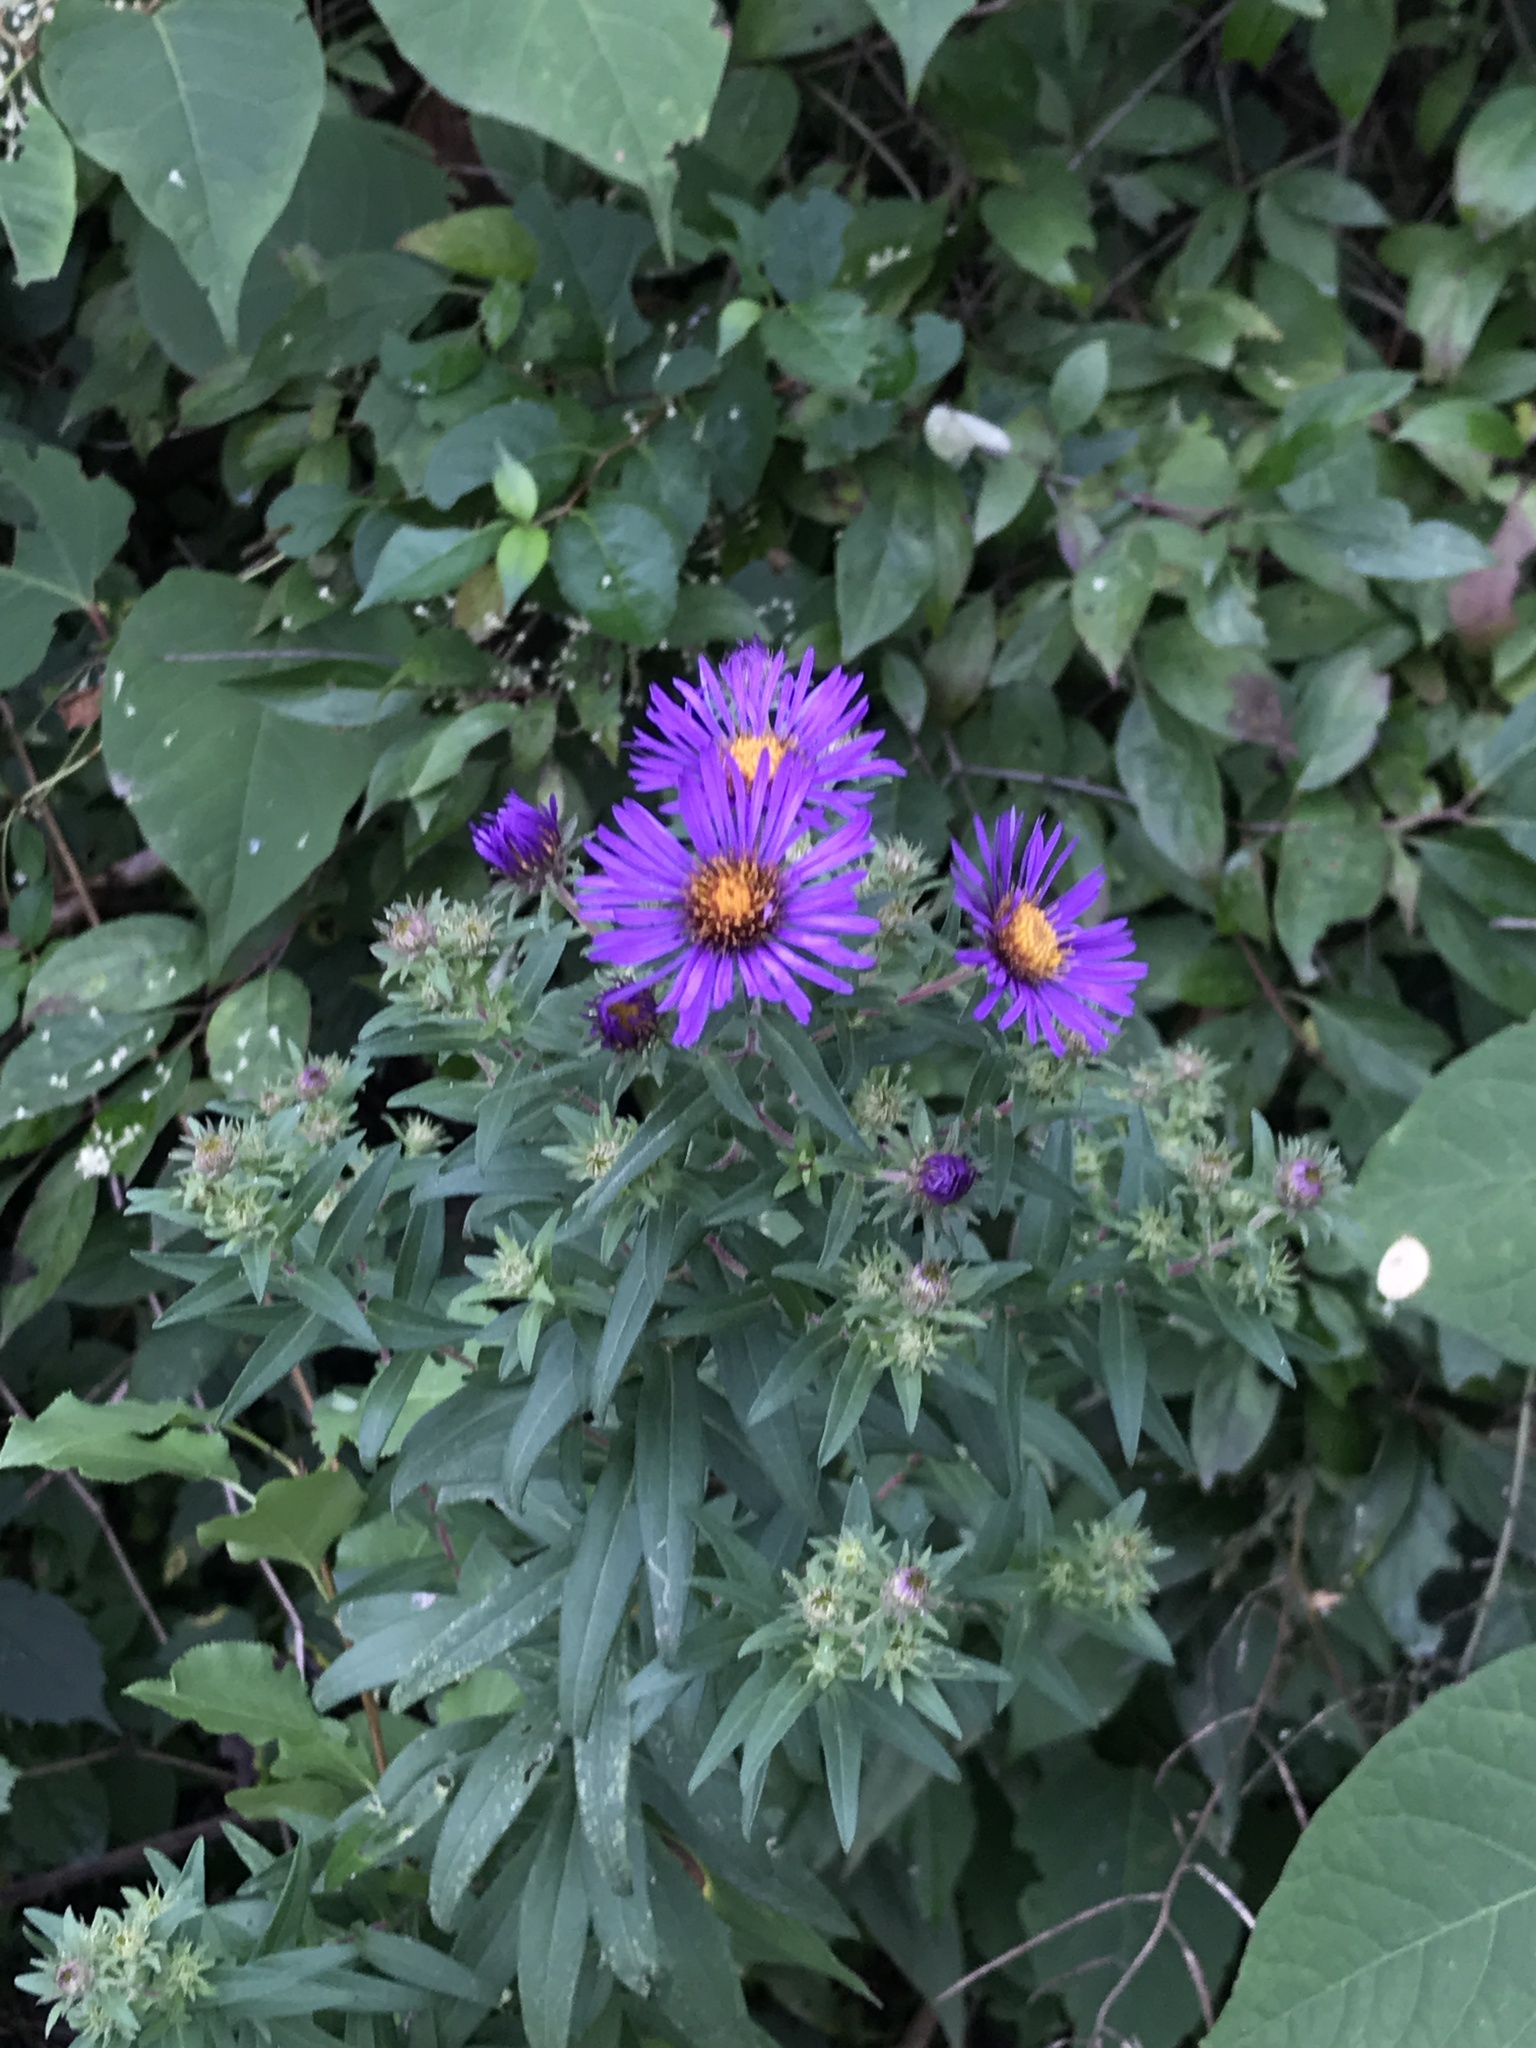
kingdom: Plantae
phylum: Tracheophyta
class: Magnoliopsida
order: Asterales
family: Asteraceae
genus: Symphyotrichum
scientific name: Symphyotrichum novae-angliae
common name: Michaelmas daisy
